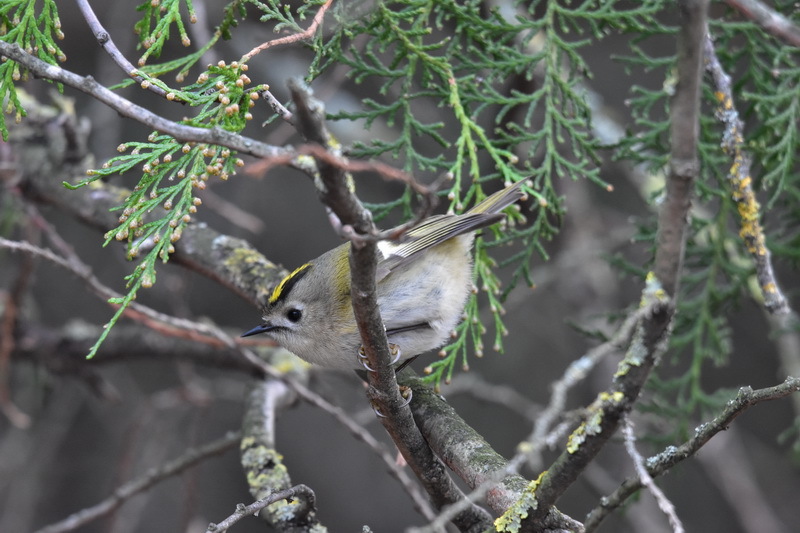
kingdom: Animalia
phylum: Chordata
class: Aves
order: Passeriformes
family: Regulidae
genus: Regulus
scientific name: Regulus regulus
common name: Goldcrest
